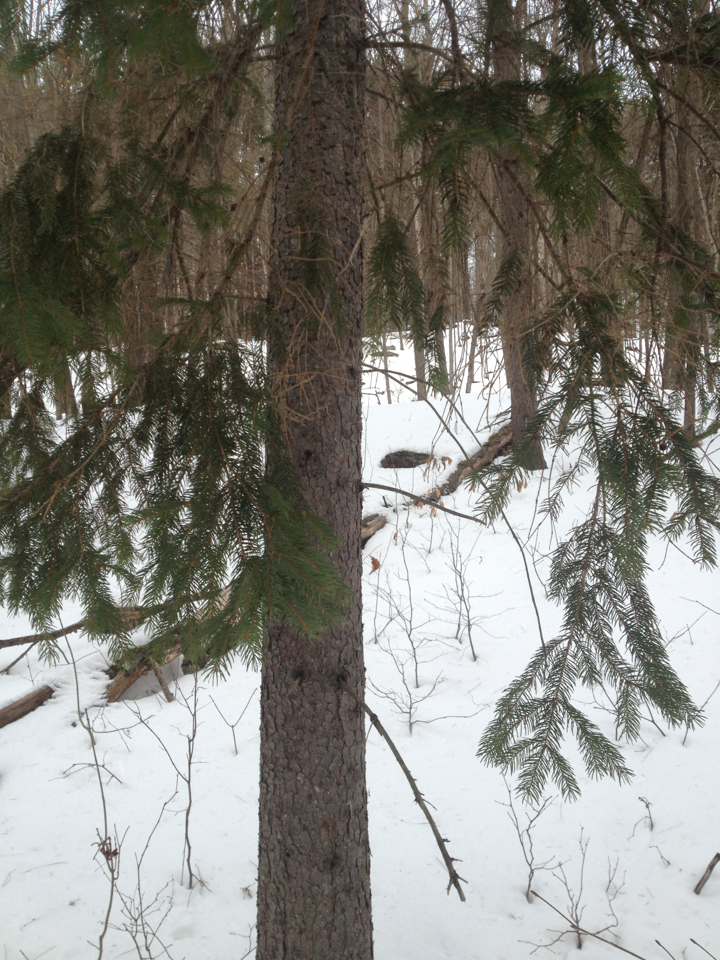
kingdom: Plantae
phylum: Tracheophyta
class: Pinopsida
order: Pinales
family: Pinaceae
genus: Picea
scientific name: Picea rubens
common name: Red spruce
